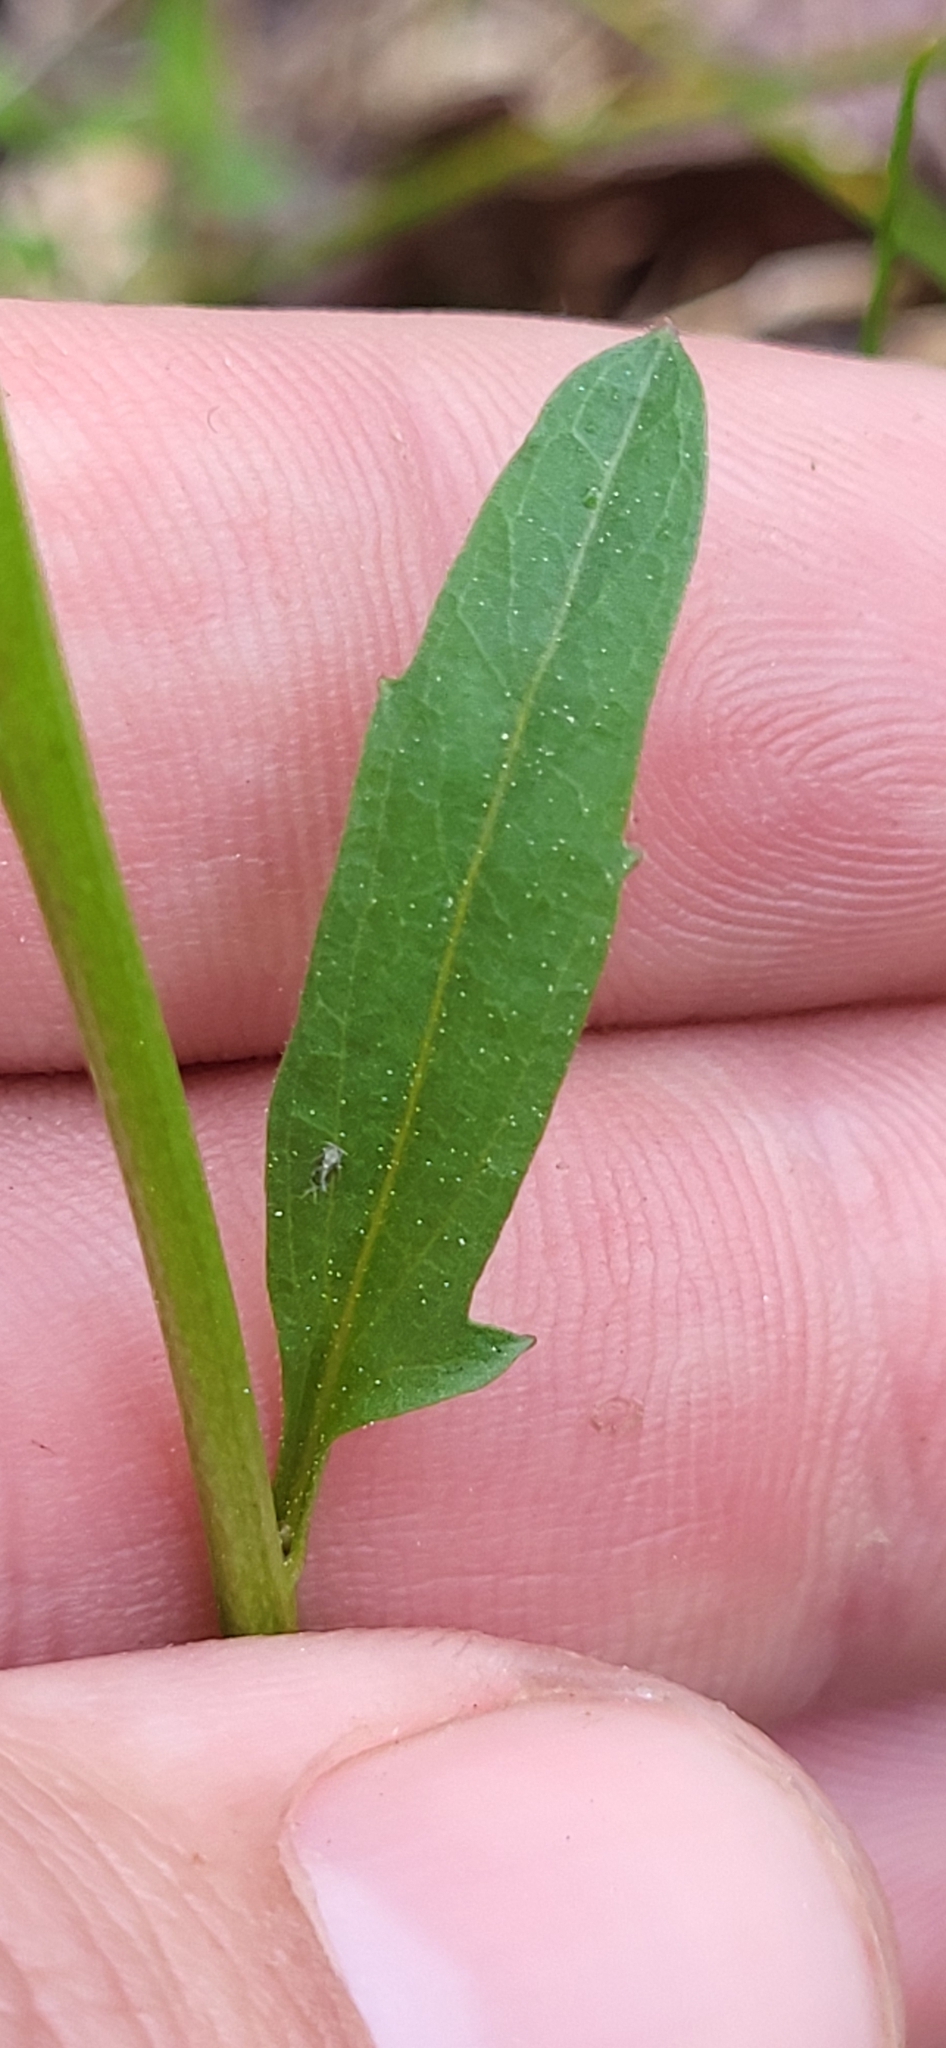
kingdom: Plantae
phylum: Tracheophyta
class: Magnoliopsida
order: Brassicales
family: Brassicaceae
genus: Cardamine
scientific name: Cardamine bulbosa
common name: Spring cress
